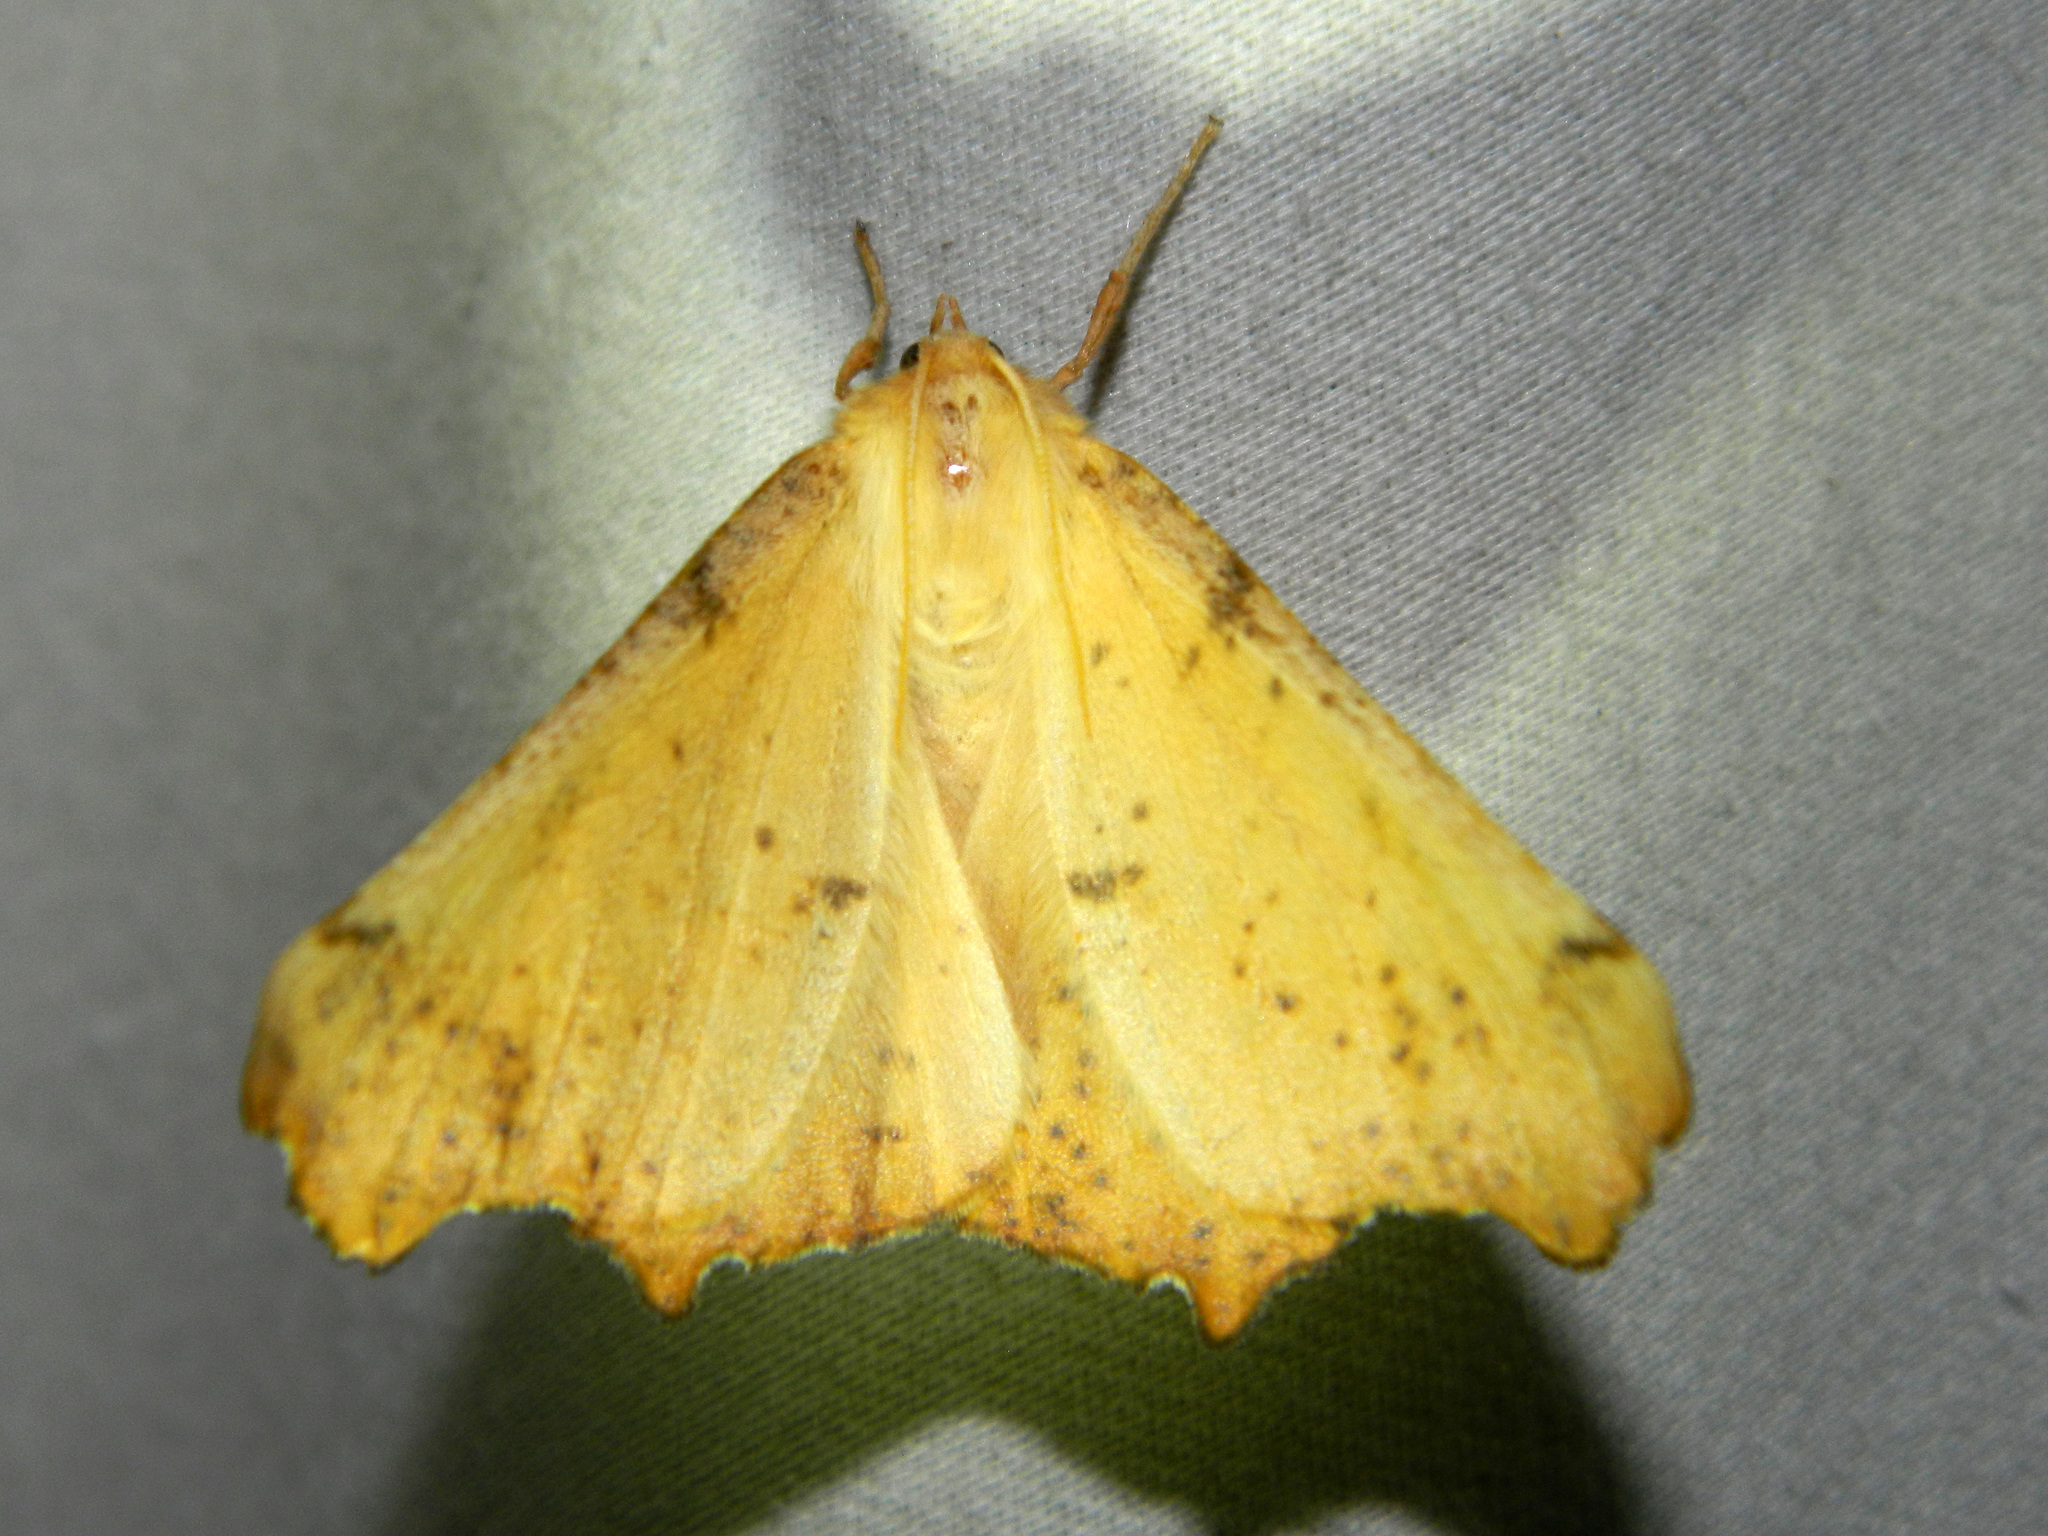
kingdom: Animalia
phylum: Arthropoda
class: Insecta
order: Lepidoptera
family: Geometridae
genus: Ennomos
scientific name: Ennomos magnaria
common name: Maple spanworm
